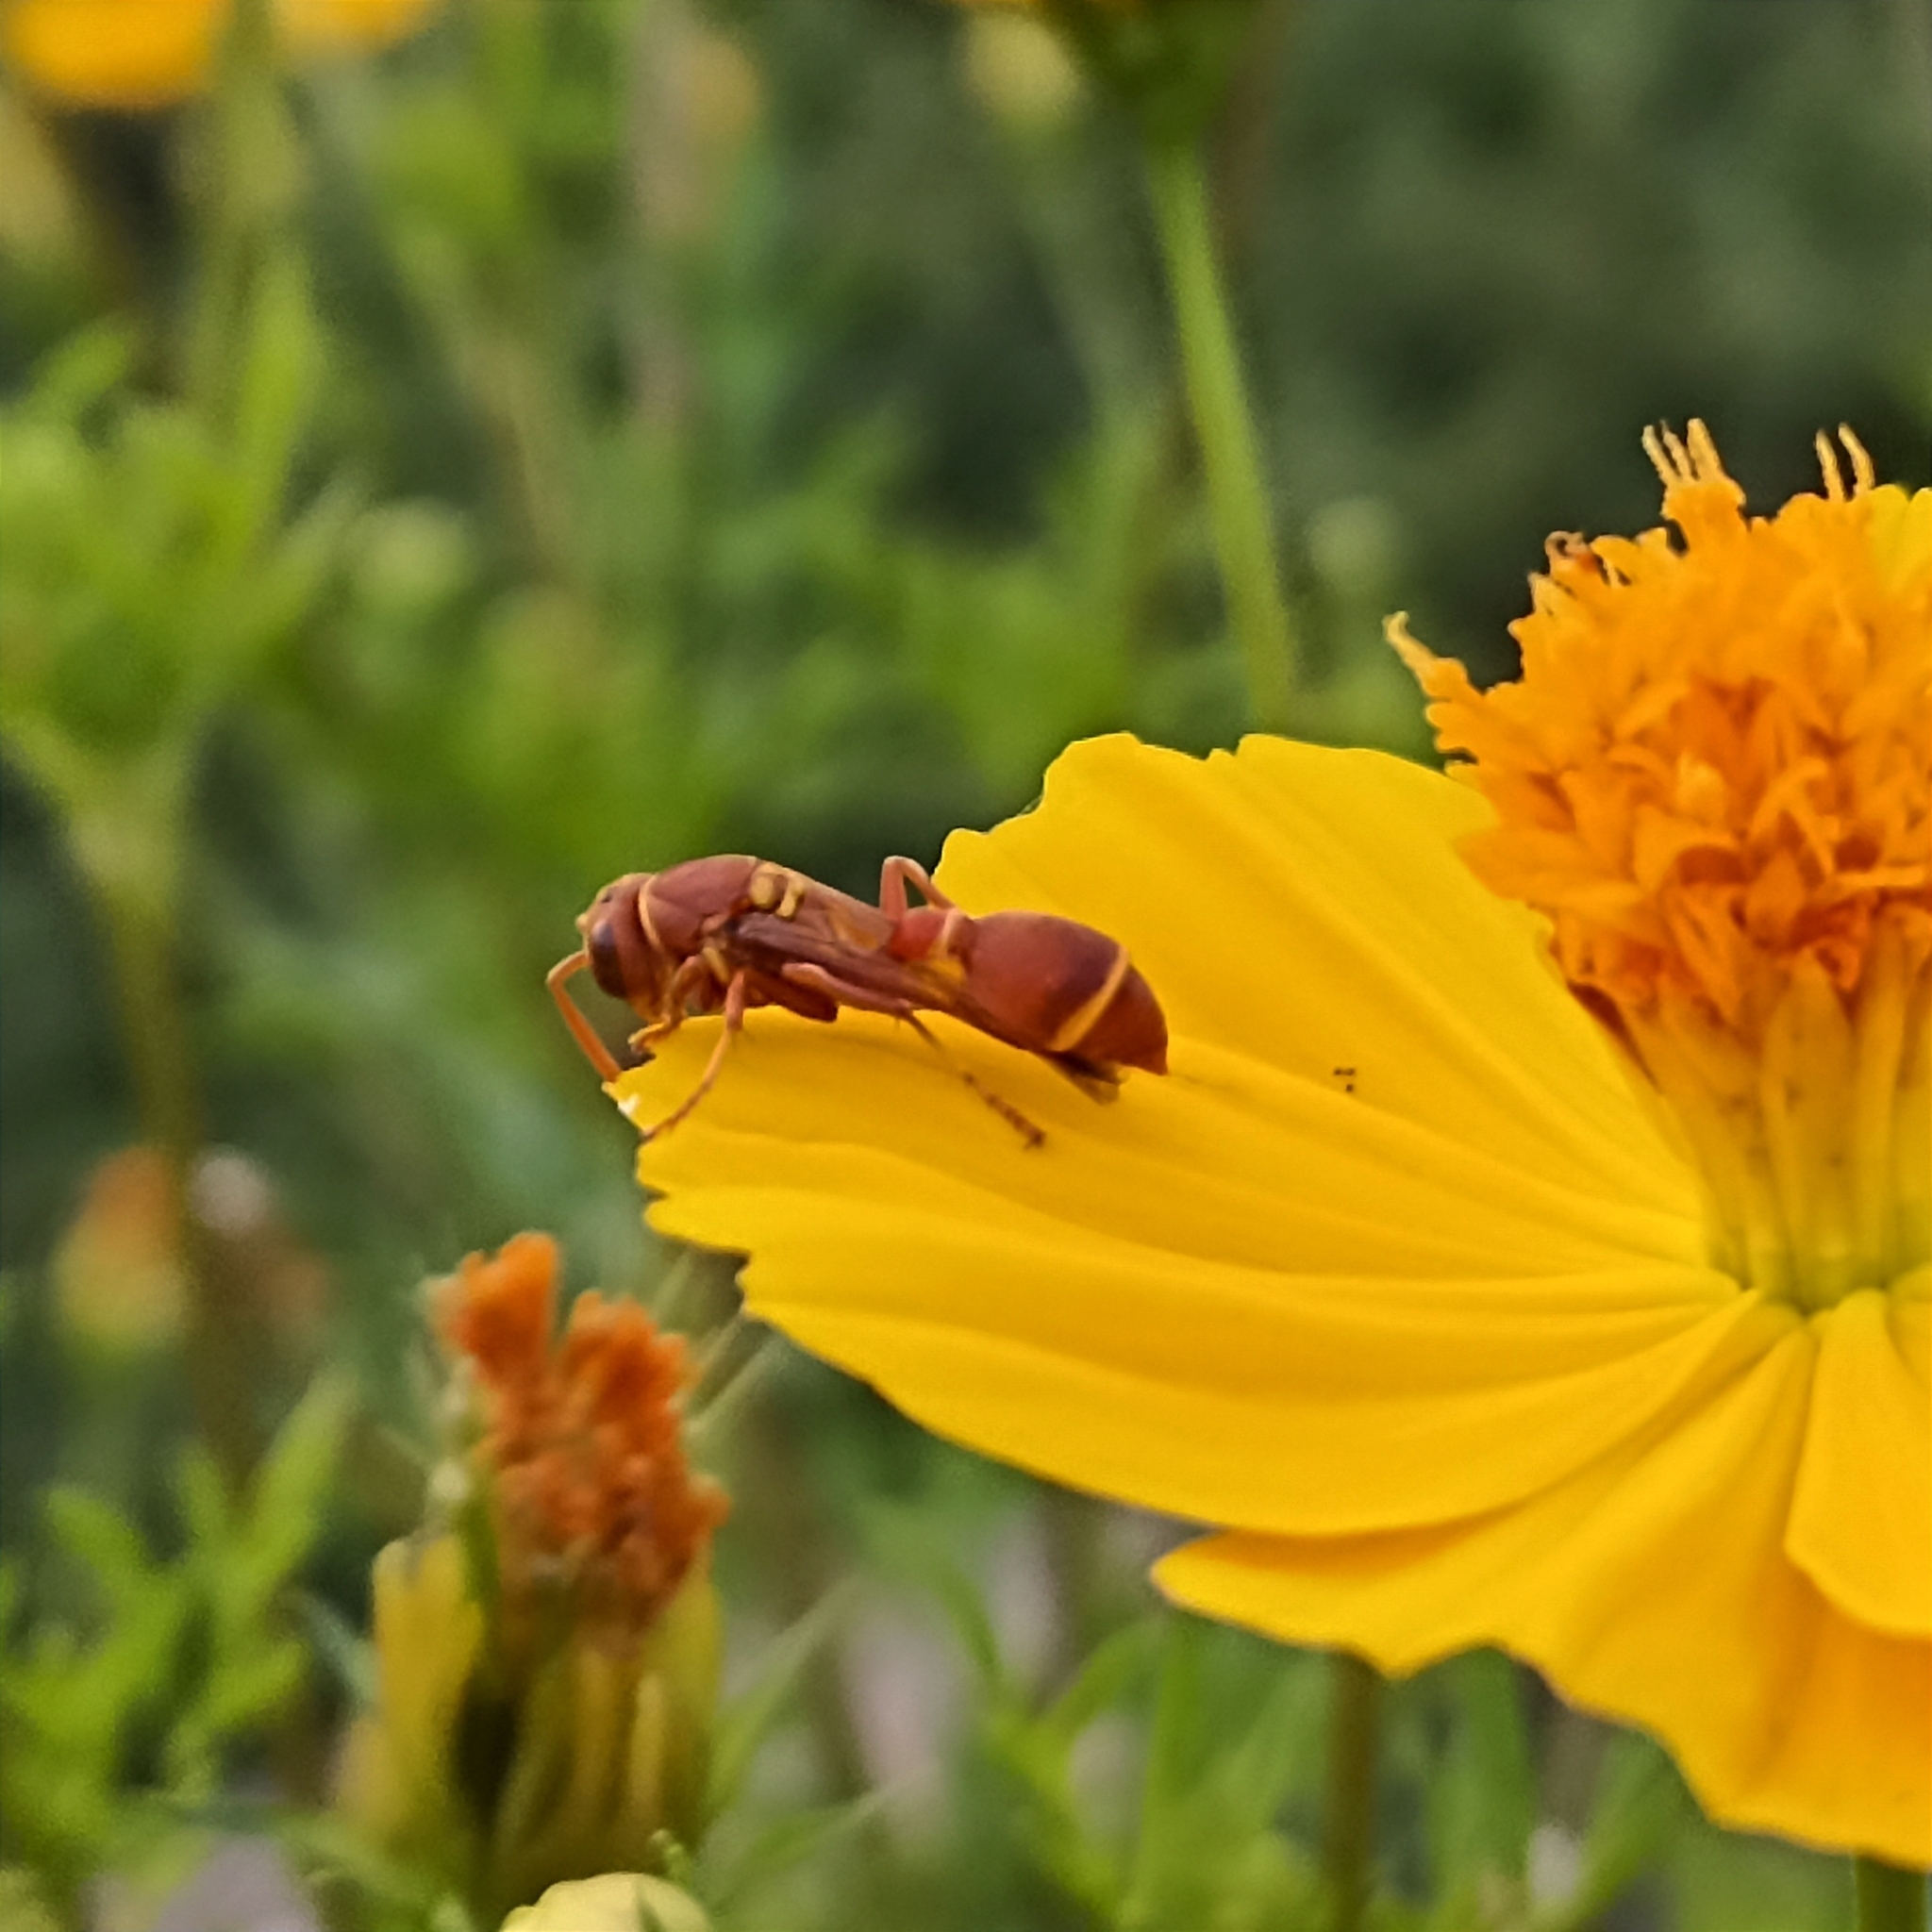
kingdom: Animalia
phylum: Arthropoda
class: Insecta
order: Hymenoptera
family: Vespidae
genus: Ropalidia
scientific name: Ropalidia marginata
